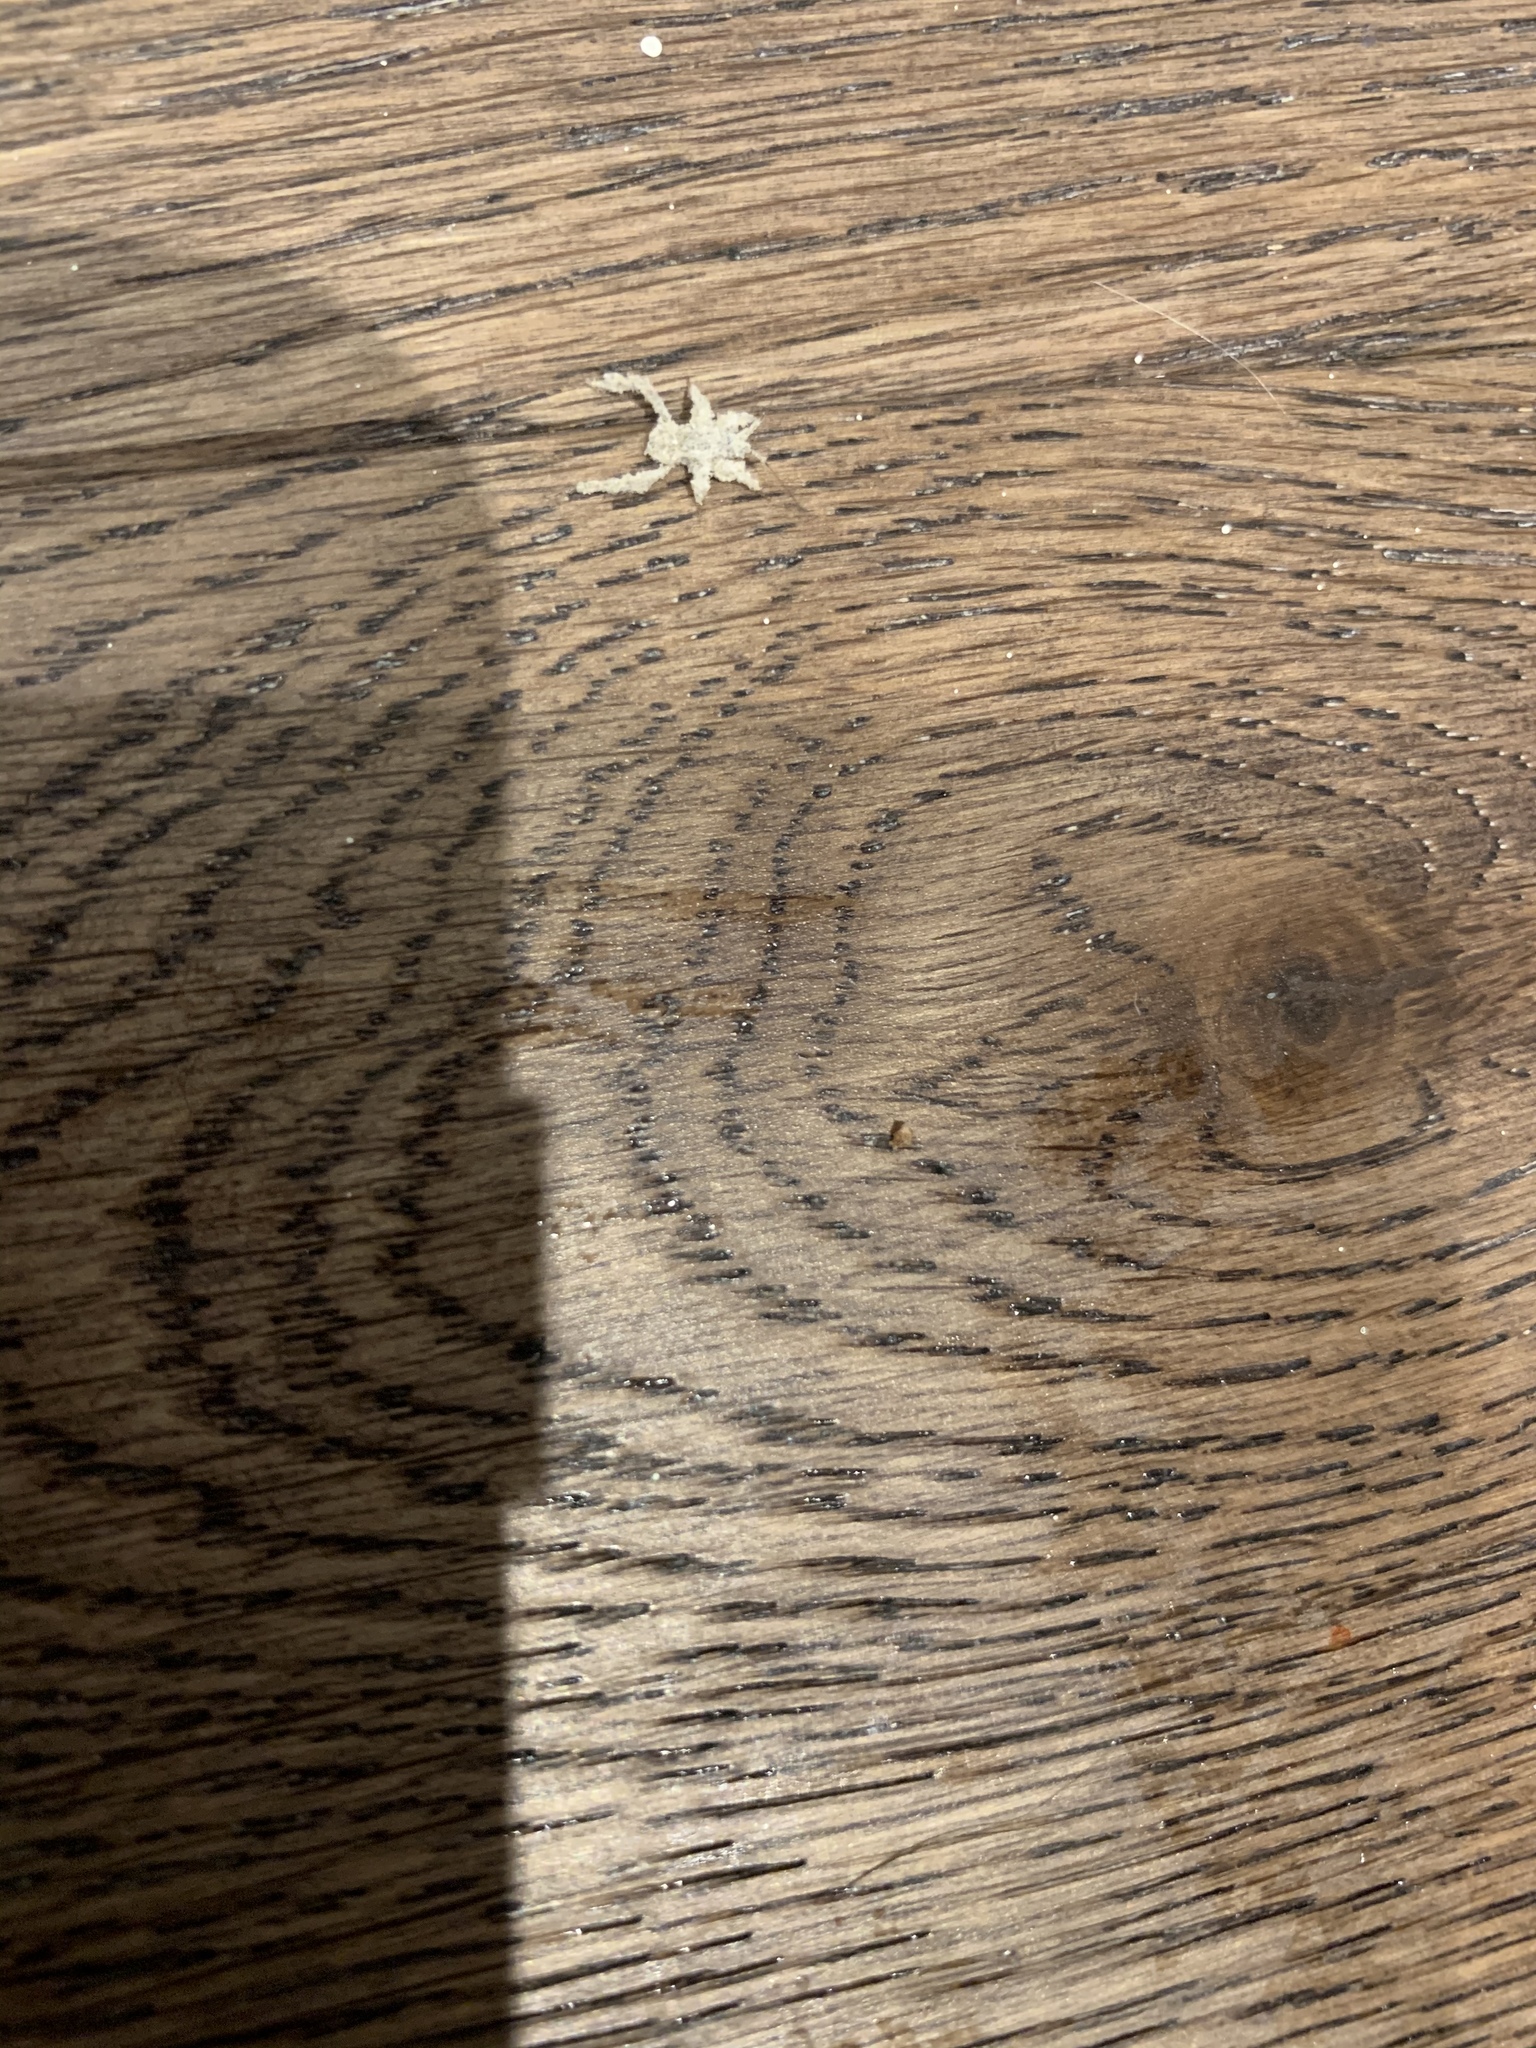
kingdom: Animalia
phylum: Arthropoda
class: Insecta
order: Hemiptera
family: Reduviidae
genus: Reduvius
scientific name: Reduvius personatus
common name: Masked hunter
